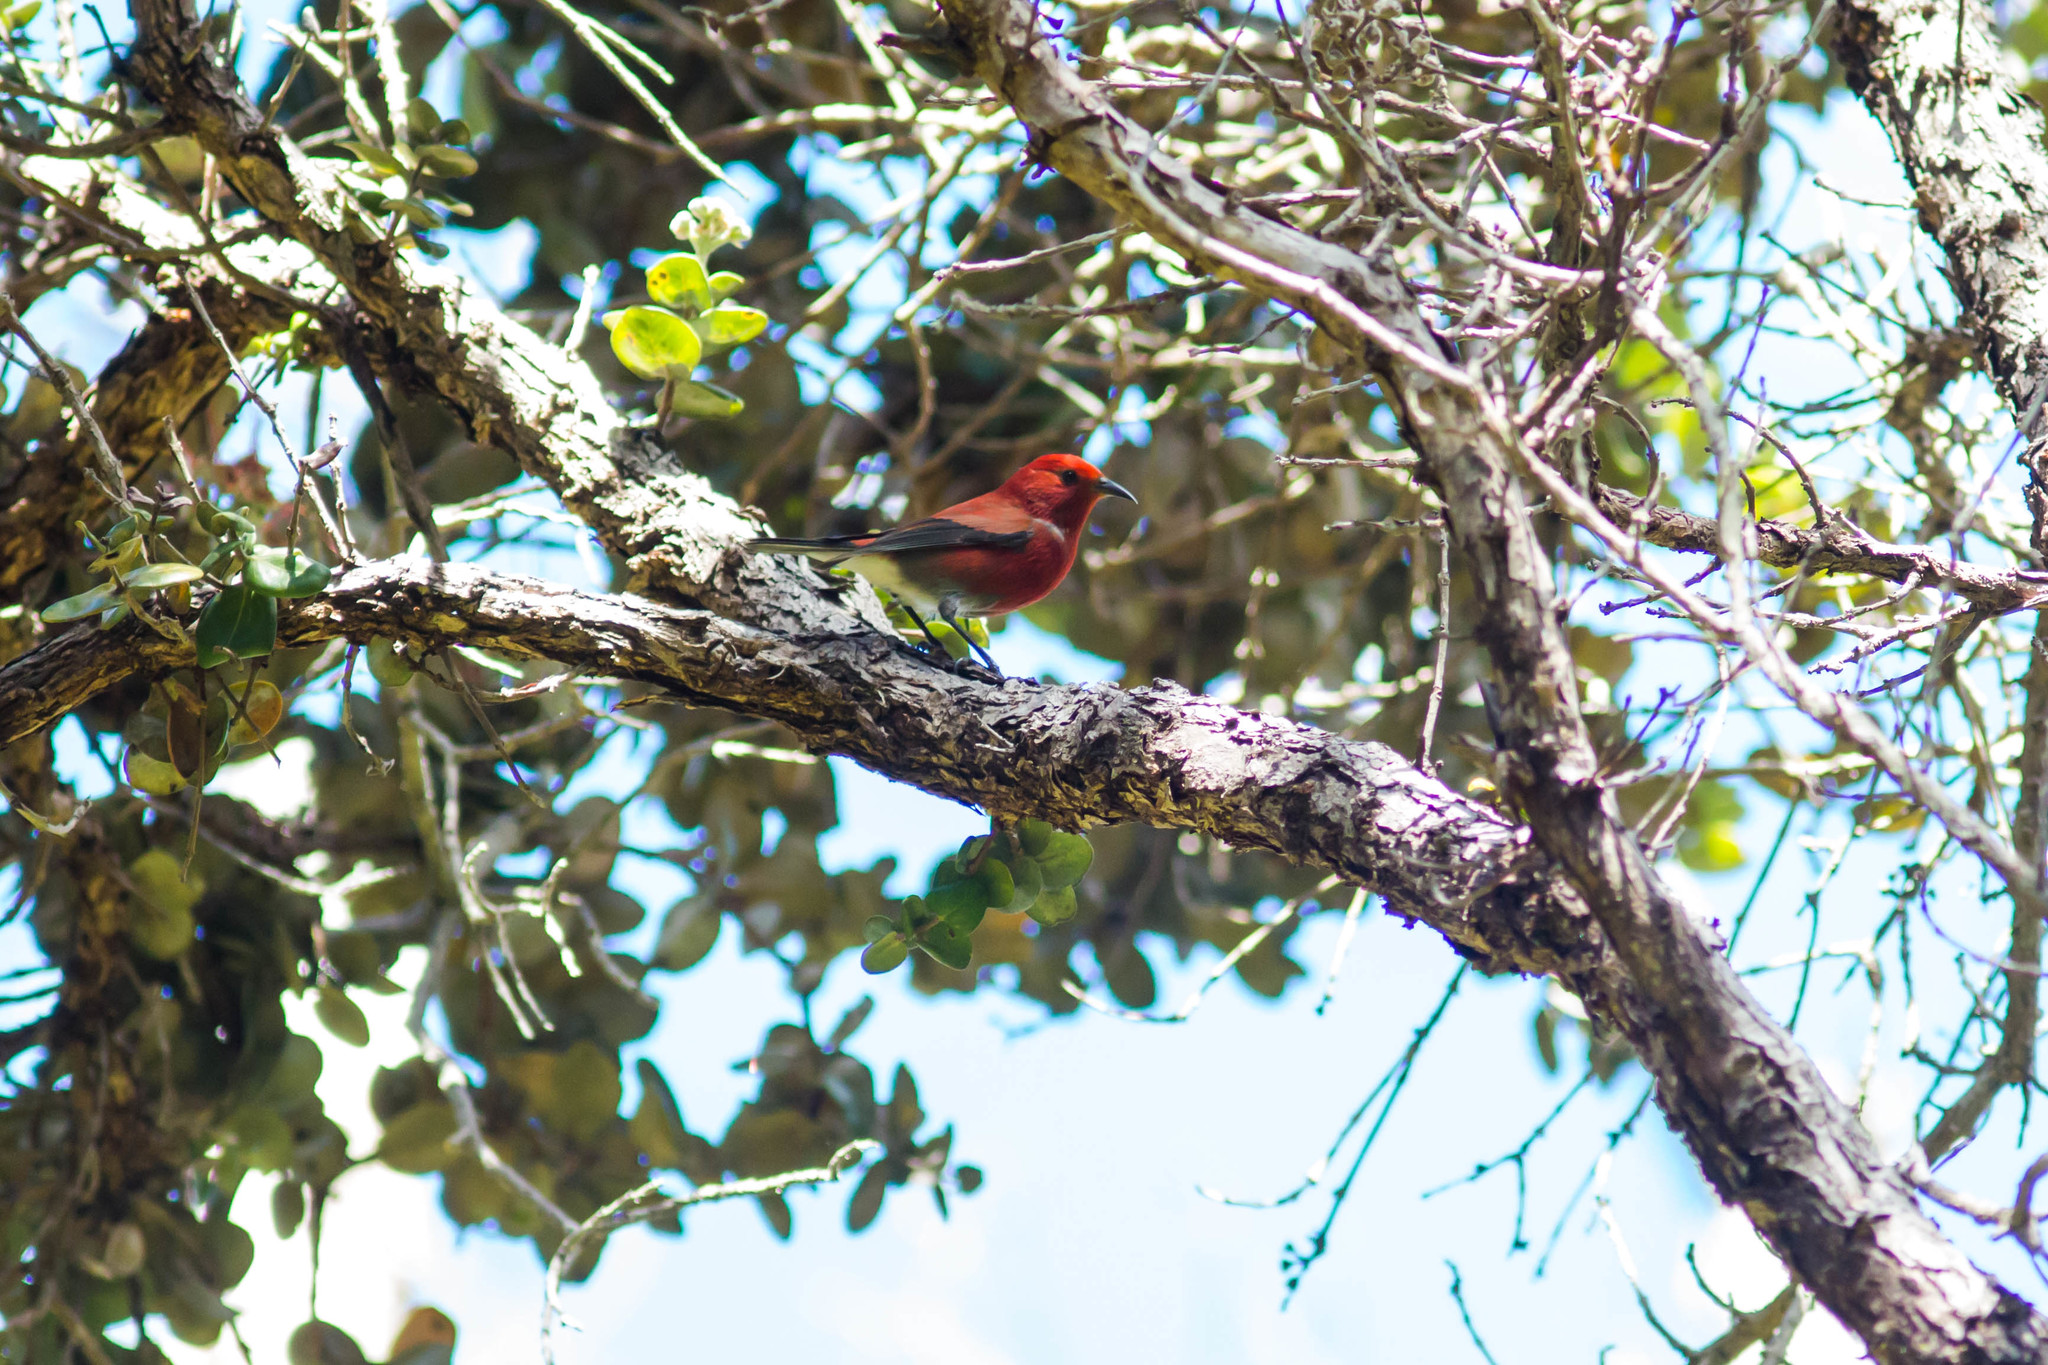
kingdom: Animalia
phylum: Chordata
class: Aves
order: Passeriformes
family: Fringillidae
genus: Himatione
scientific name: Himatione sanguinea
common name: Apapane
